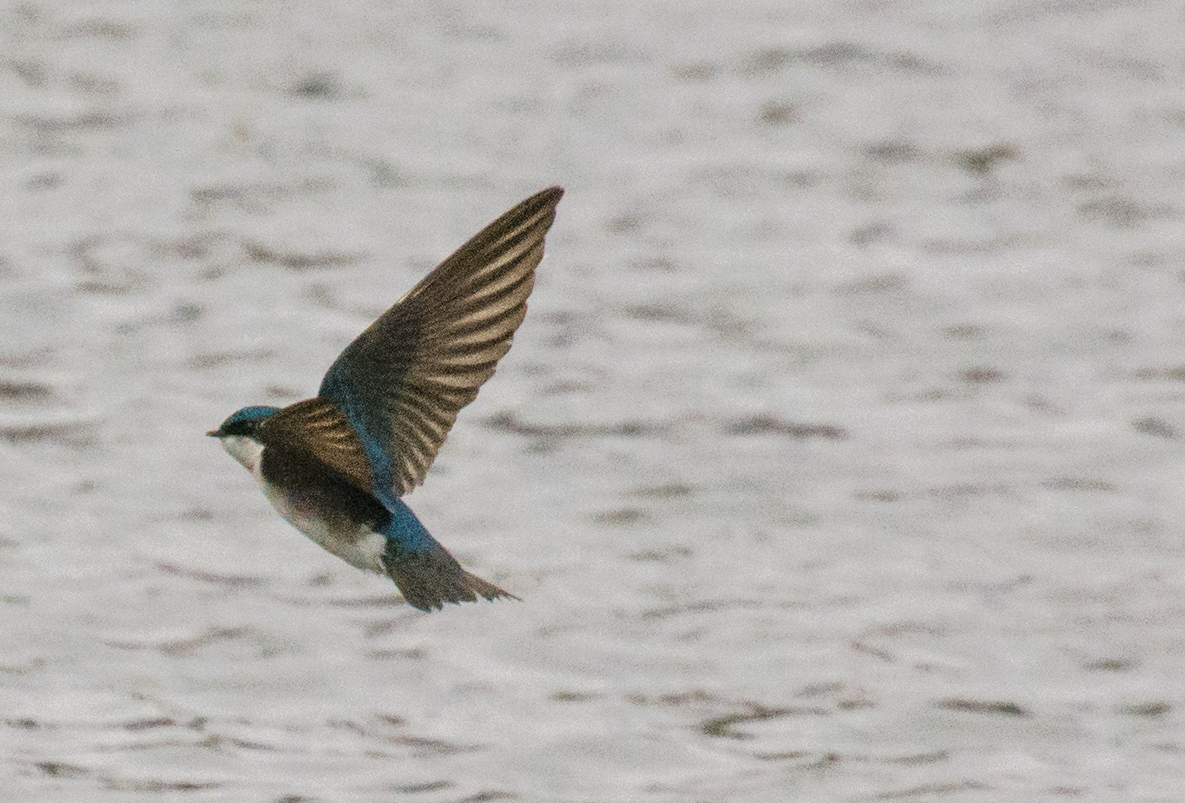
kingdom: Animalia
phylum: Chordata
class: Aves
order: Passeriformes
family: Hirundinidae
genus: Tachycineta
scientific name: Tachycineta bicolor
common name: Tree swallow
